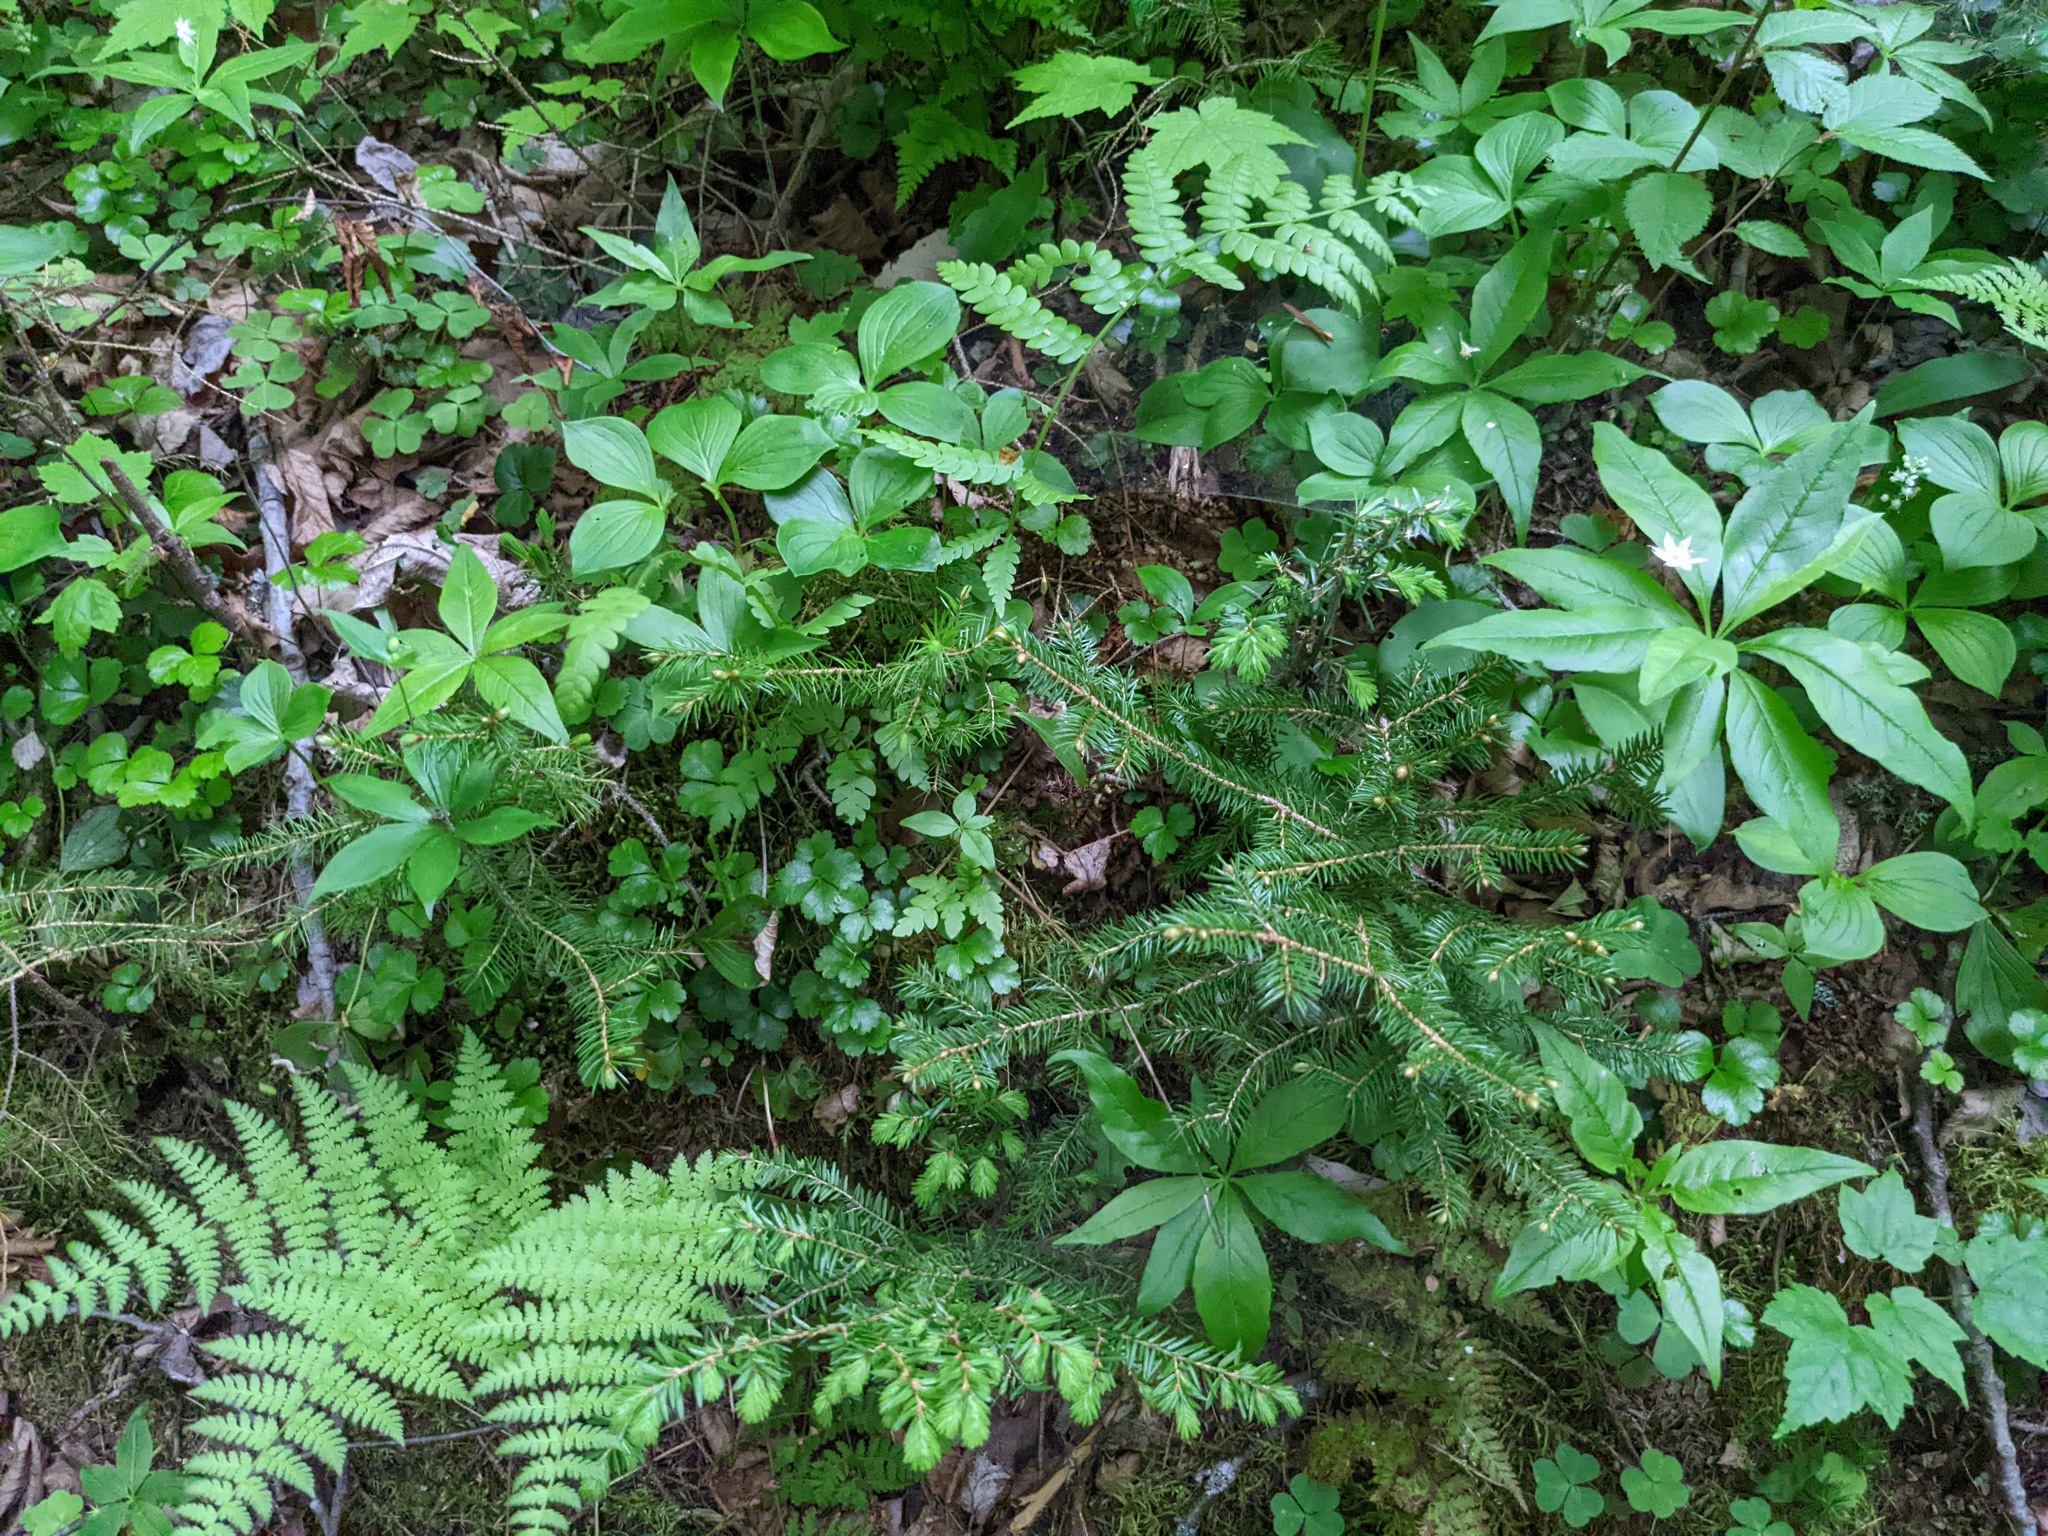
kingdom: Plantae
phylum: Tracheophyta
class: Magnoliopsida
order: Cornales
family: Cornaceae
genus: Cornus
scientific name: Cornus canadensis
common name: Creeping dogwood
